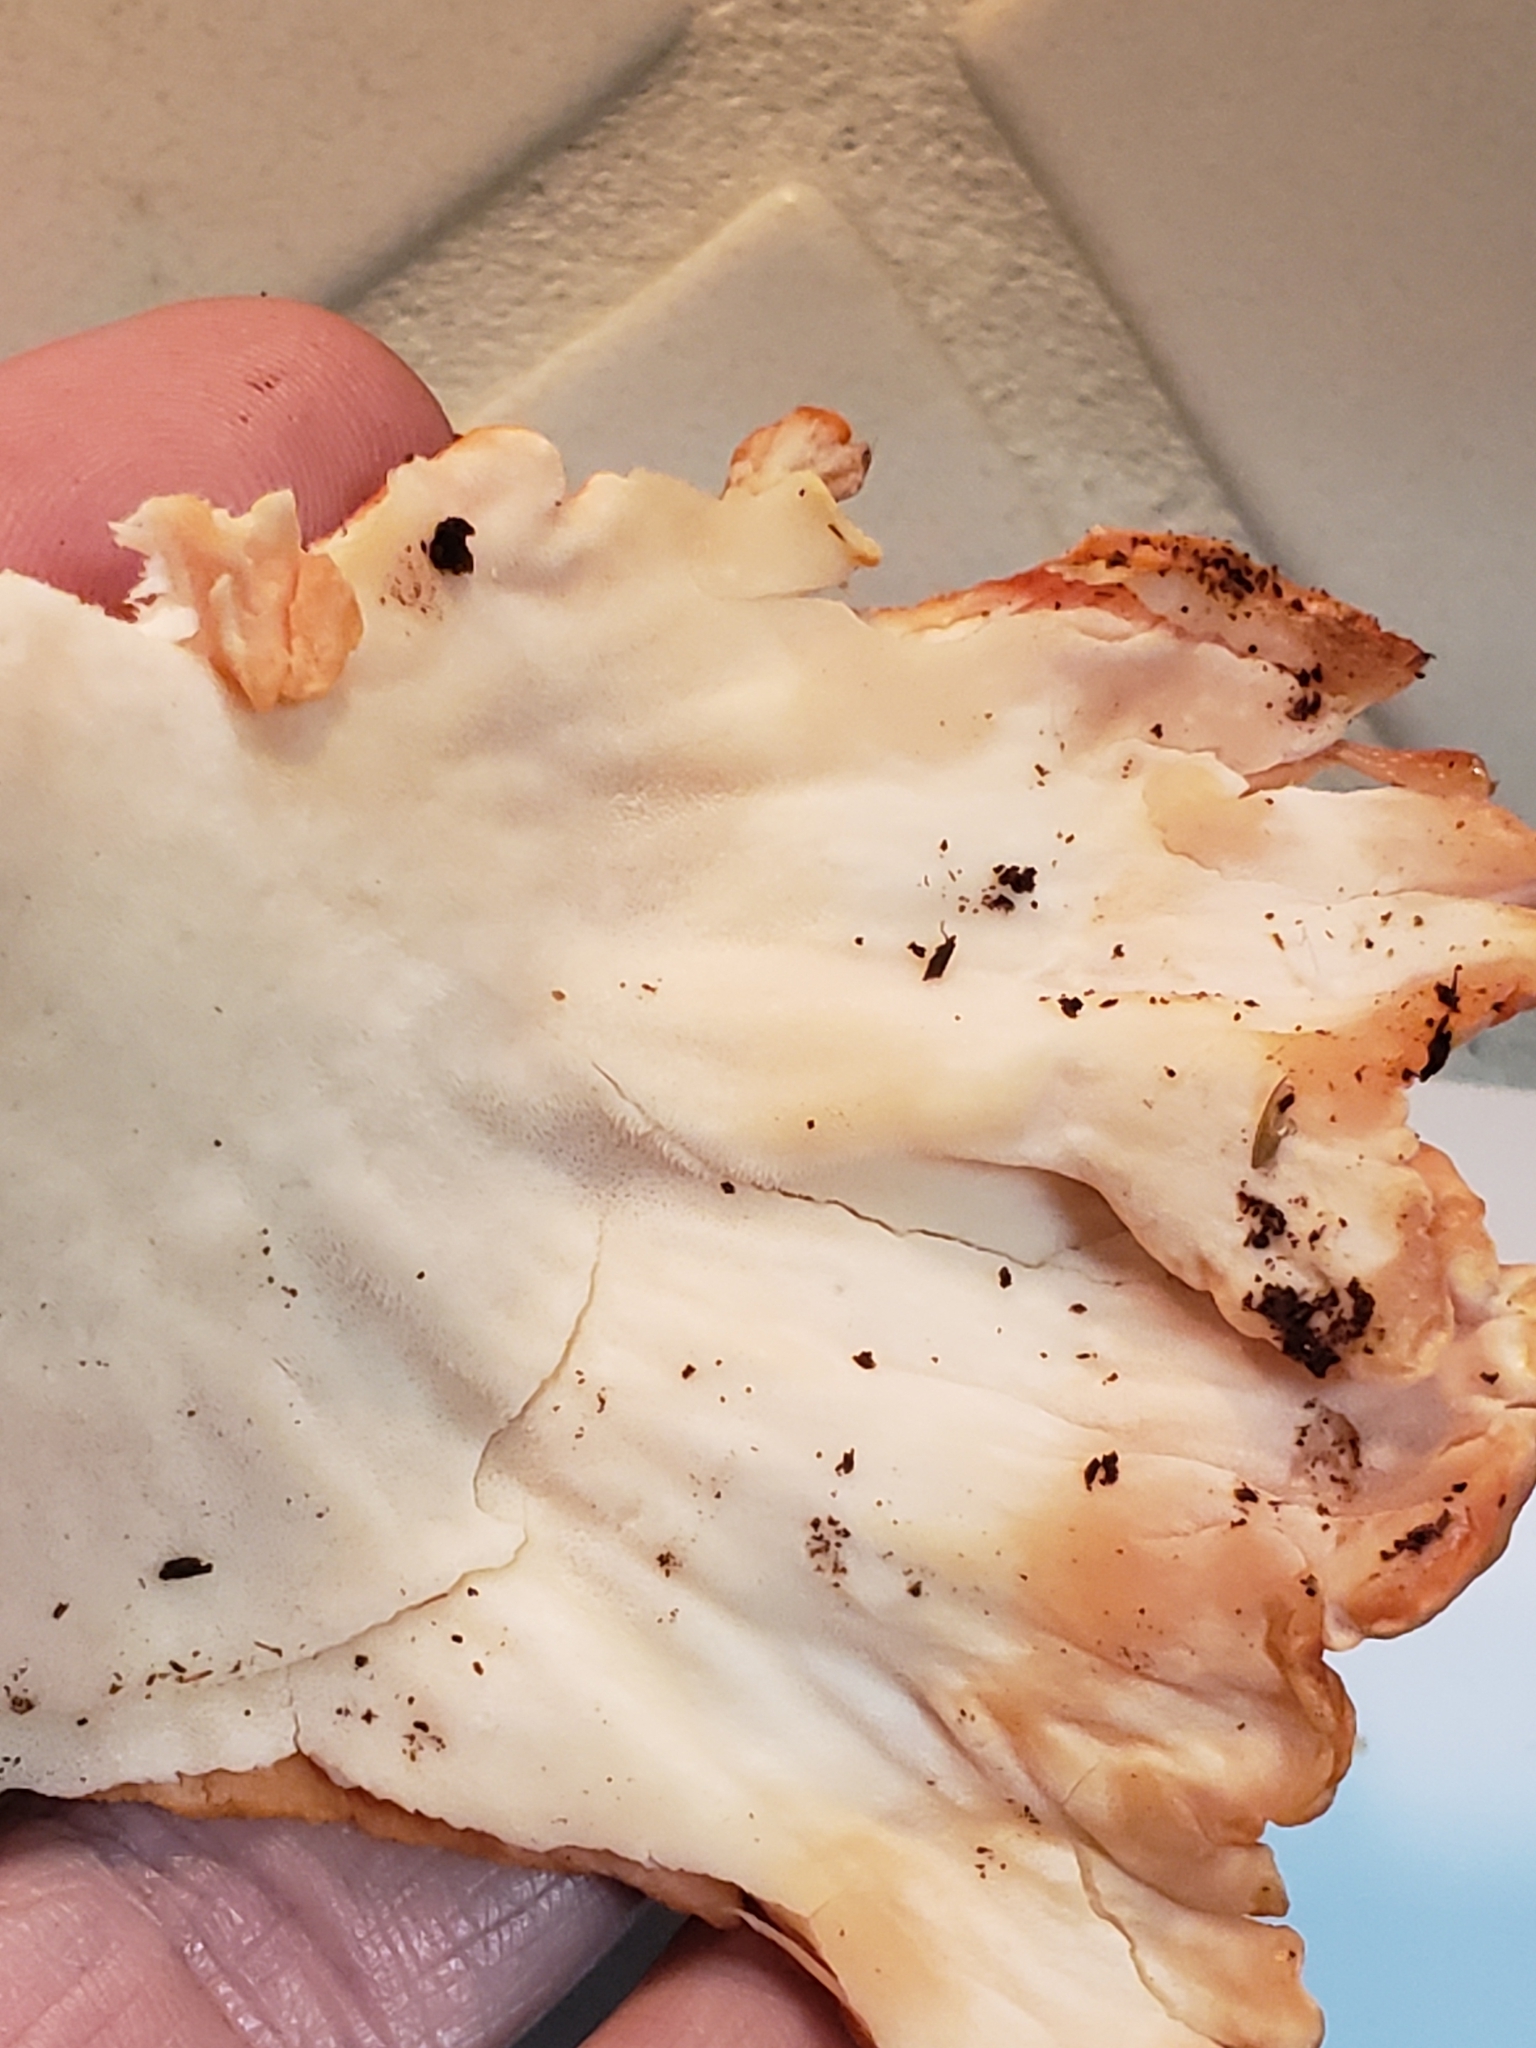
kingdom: Fungi
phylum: Basidiomycota
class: Agaricomycetes
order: Polyporales
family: Laetiporaceae
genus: Laetiporus
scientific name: Laetiporus sulphureus
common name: Chicken of the woods
